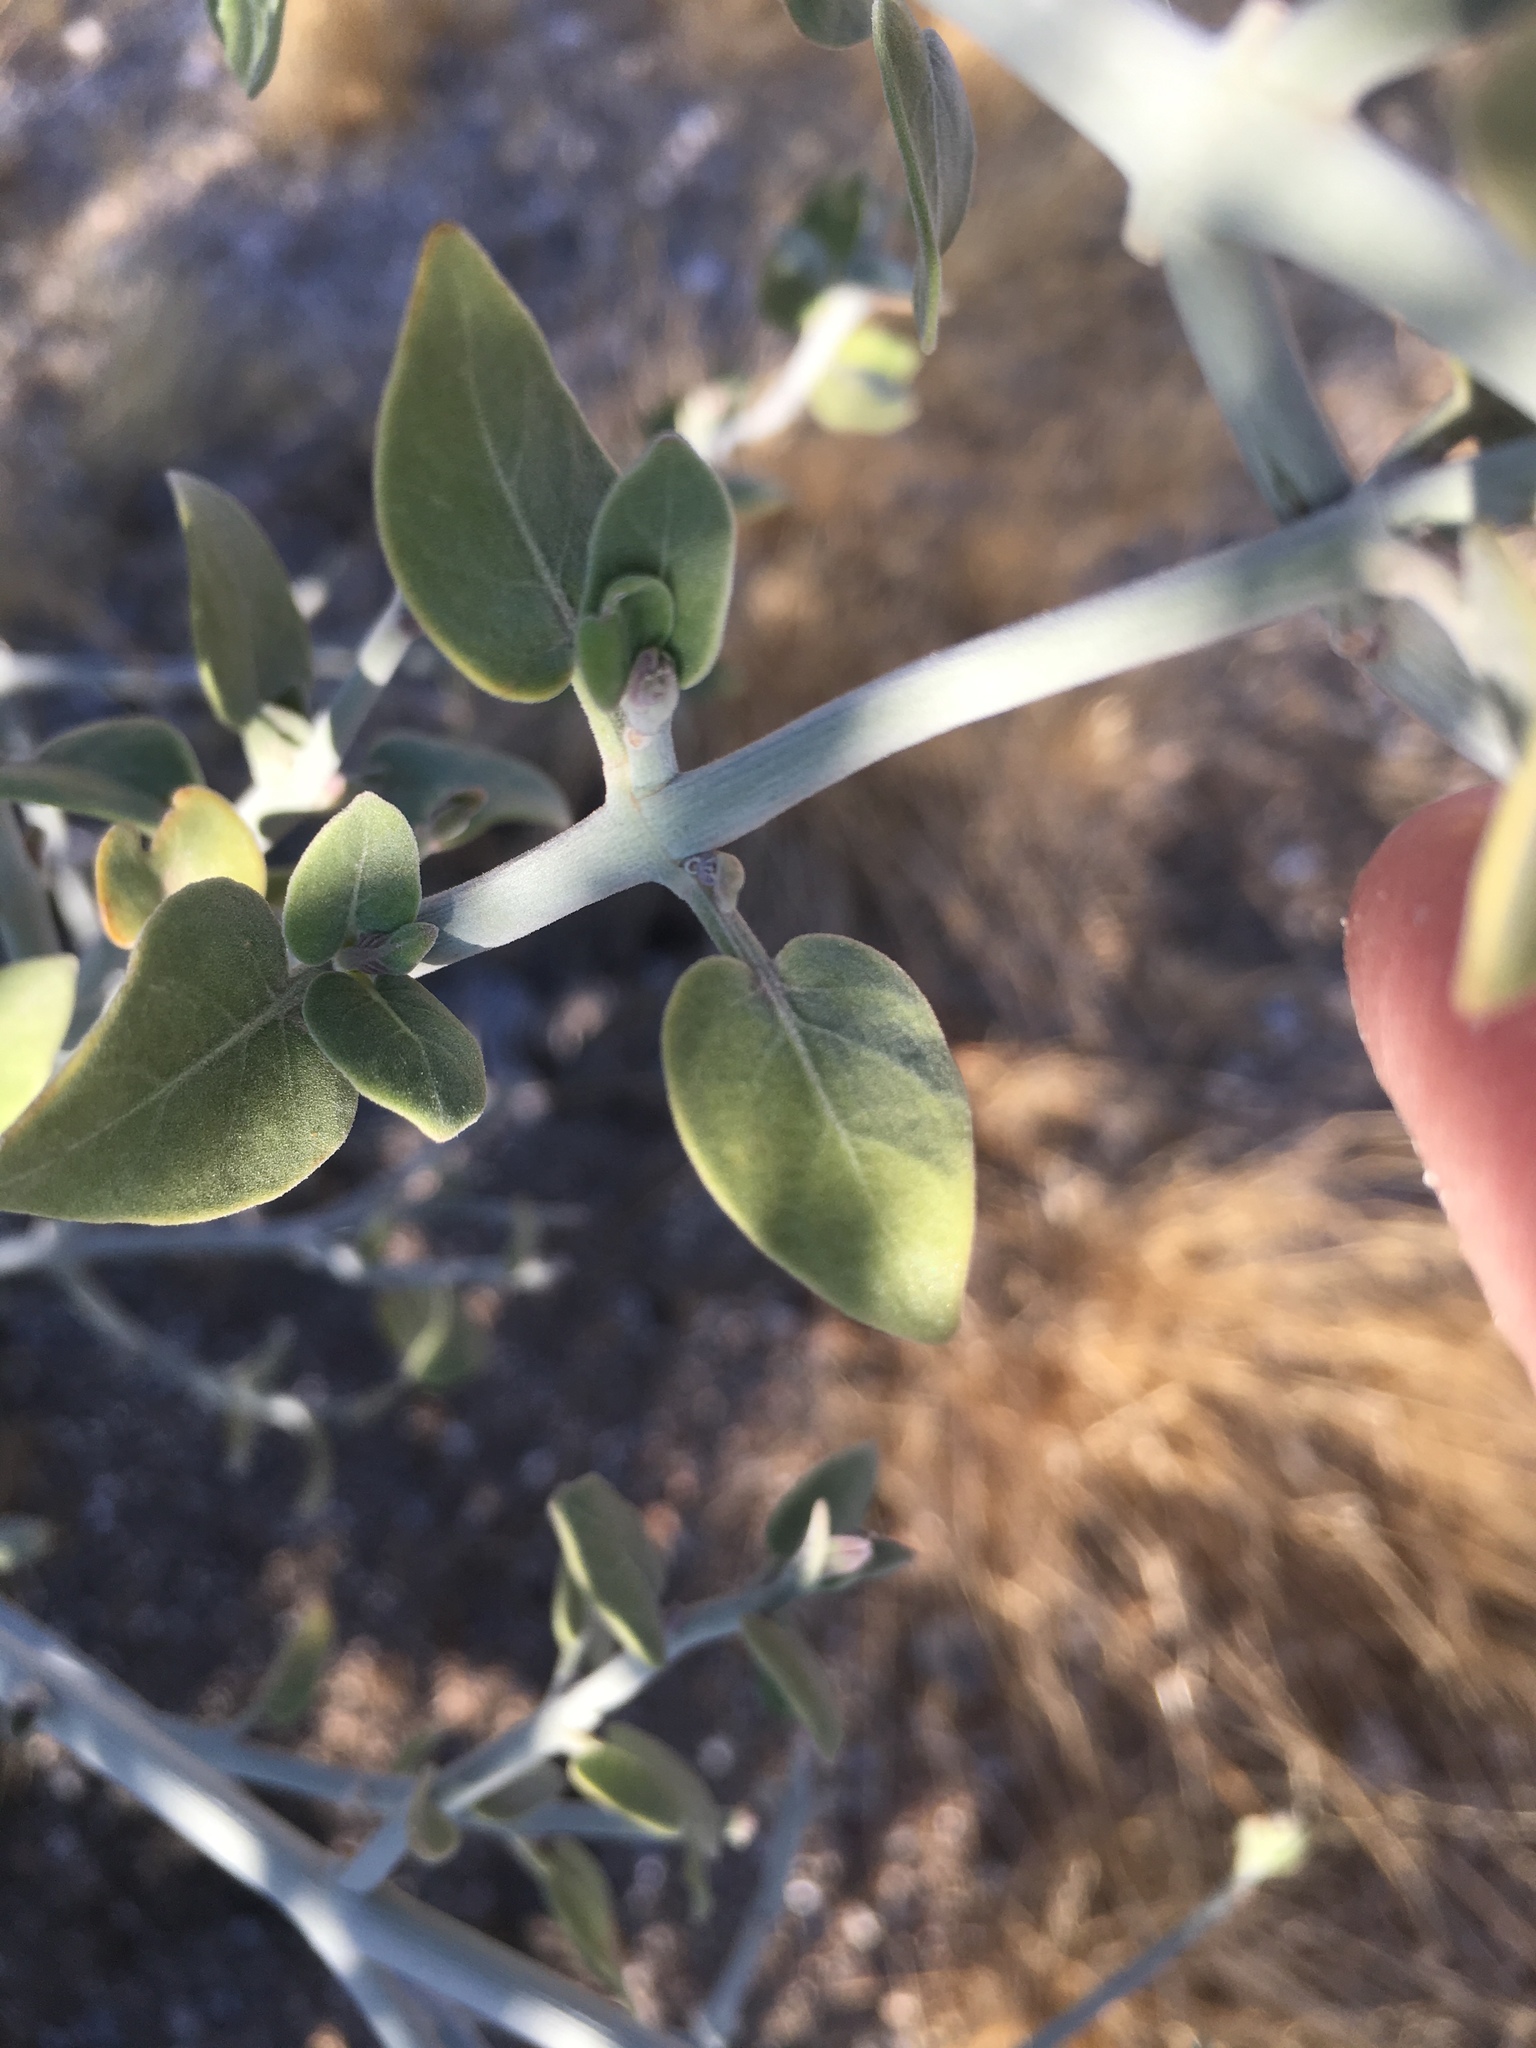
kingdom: Plantae
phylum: Tracheophyta
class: Magnoliopsida
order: Lamiales
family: Acanthaceae
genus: Justicia
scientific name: Justicia californica
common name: Chuparosa-honeysuckle
